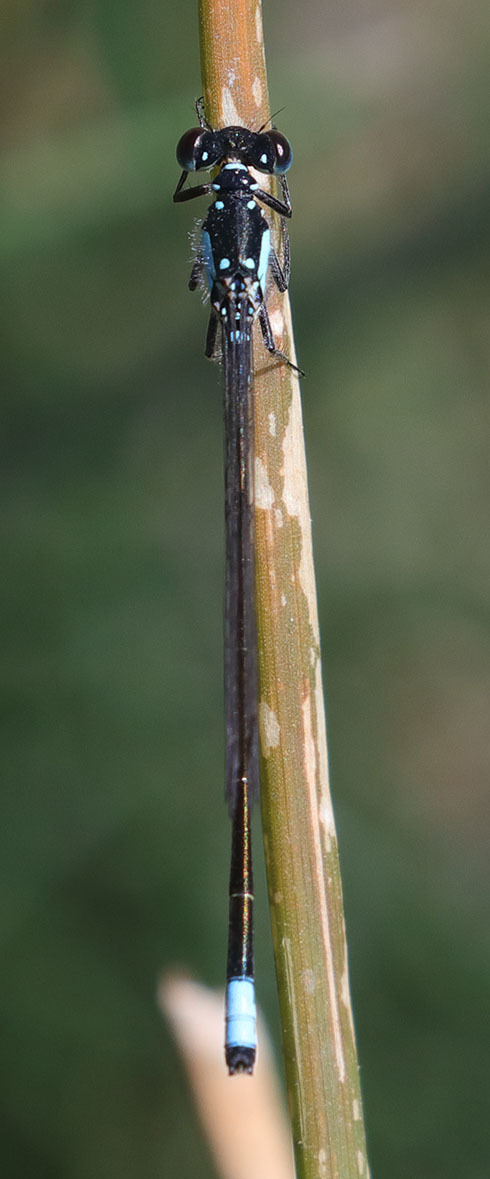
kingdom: Animalia
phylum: Arthropoda
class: Insecta
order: Odonata
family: Coenagrionidae
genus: Ischnura
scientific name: Ischnura cervula
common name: Pacific forktail
